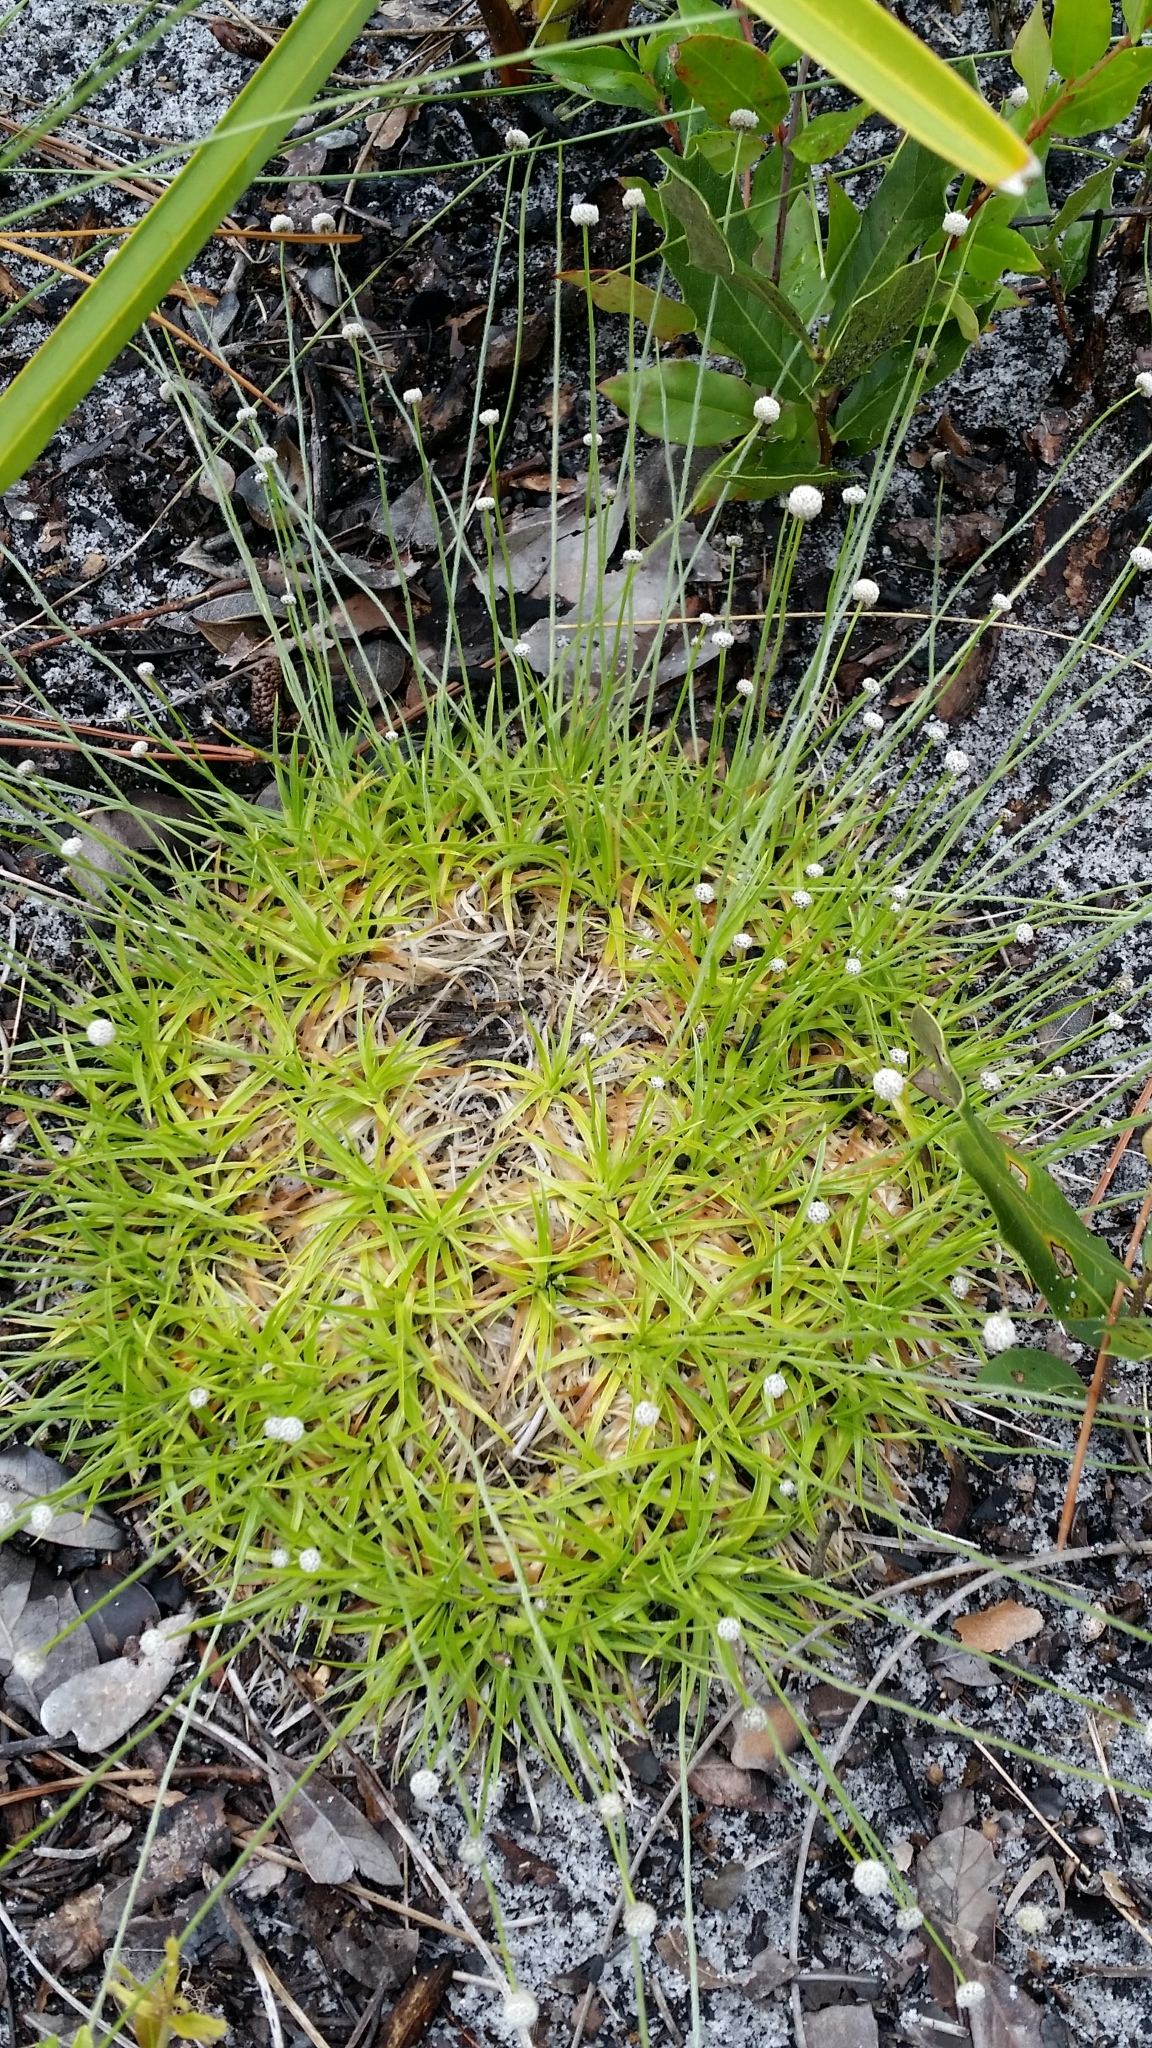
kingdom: Plantae
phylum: Tracheophyta
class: Liliopsida
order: Poales
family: Eriocaulaceae
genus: Paepalanthus
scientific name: Paepalanthus beyrichianus
